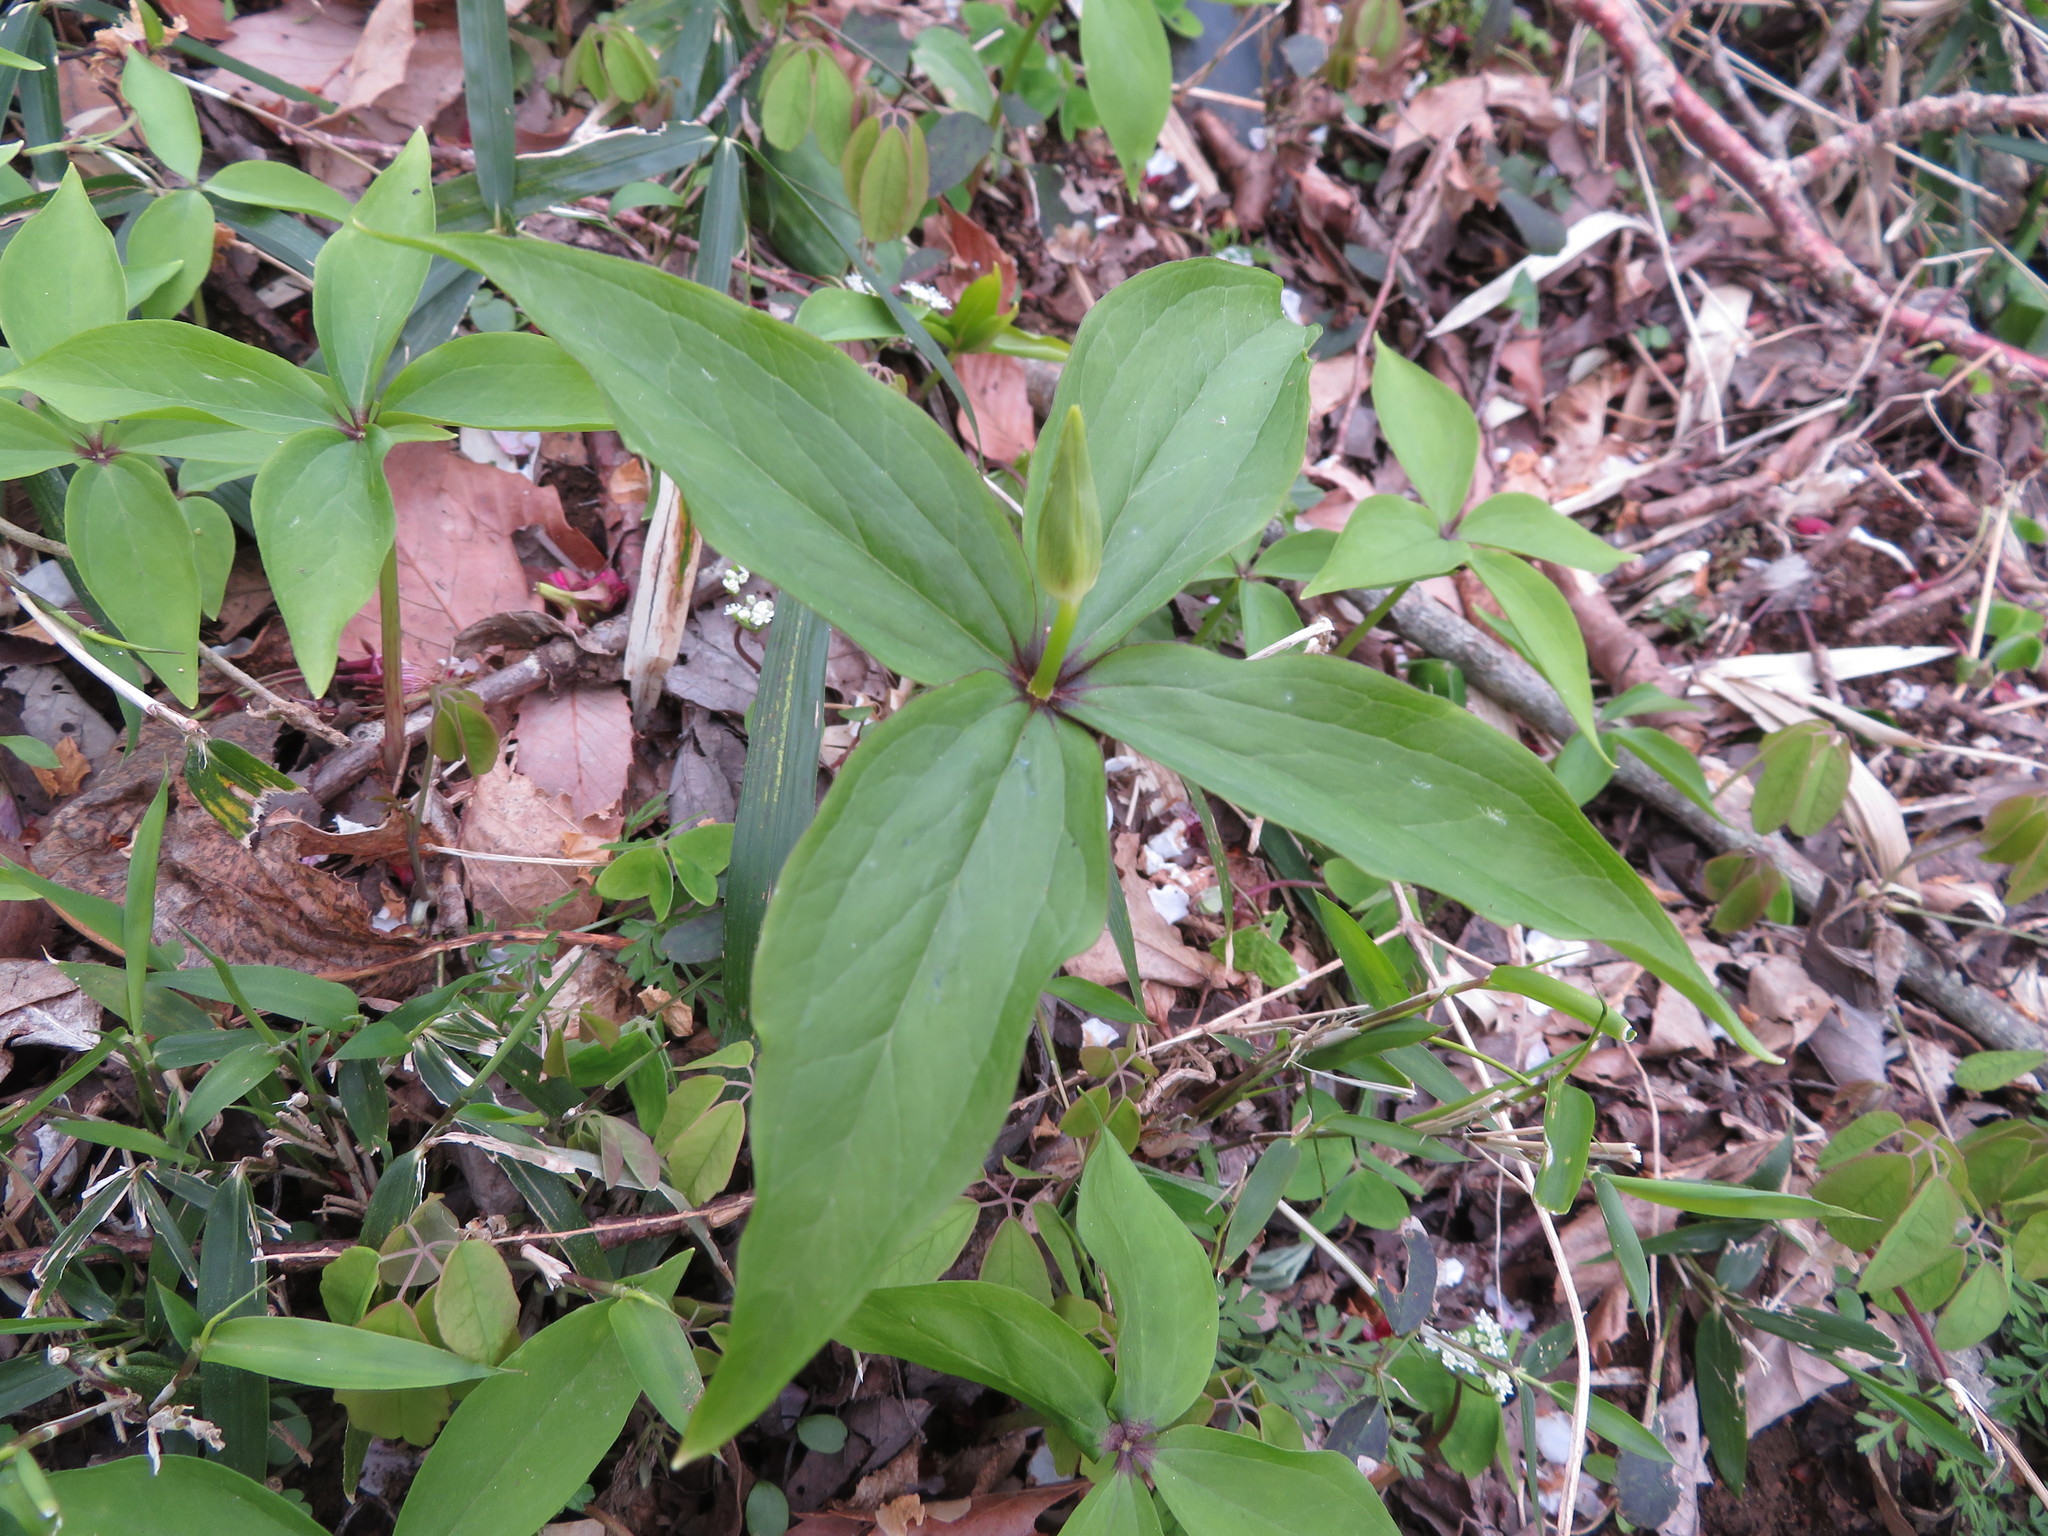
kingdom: Plantae
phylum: Tracheophyta
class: Liliopsida
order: Liliales
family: Melanthiaceae
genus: Paris
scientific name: Paris tetraphylla
